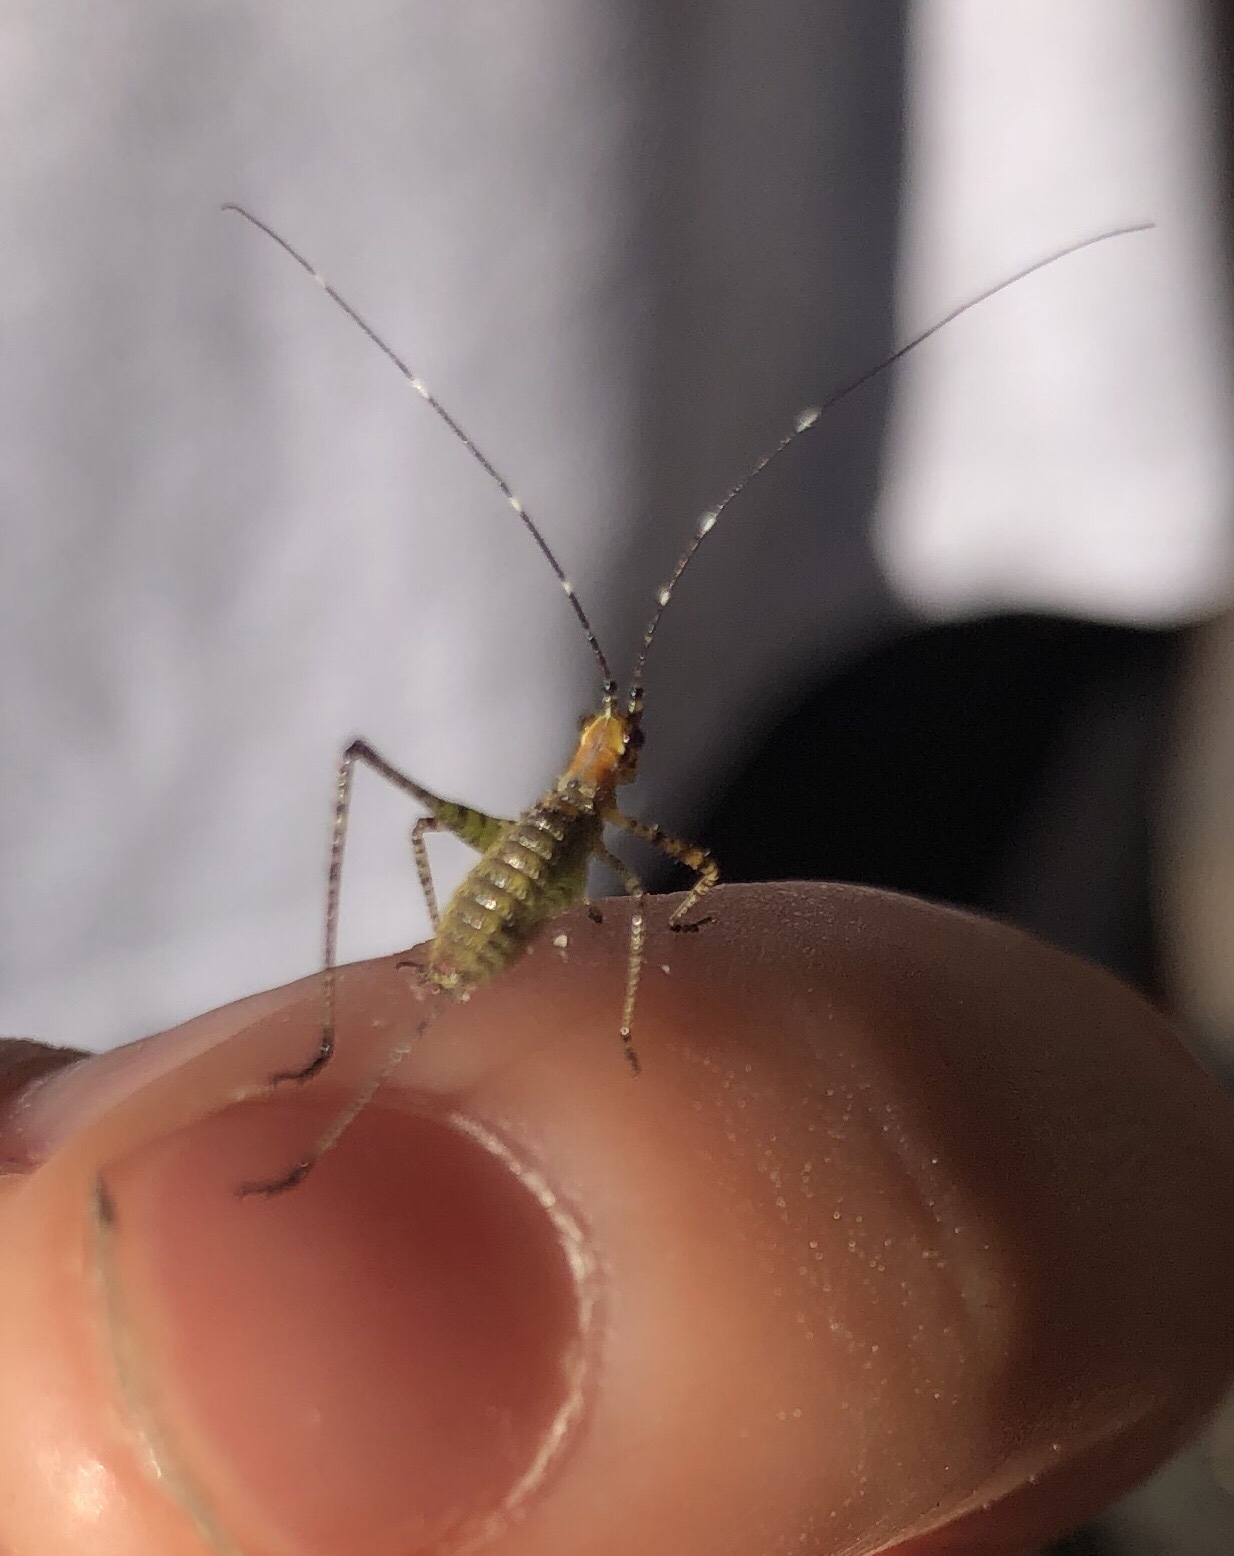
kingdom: Animalia
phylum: Arthropoda
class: Insecta
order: Orthoptera
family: Tettigoniidae
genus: Scudderia
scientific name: Scudderia
